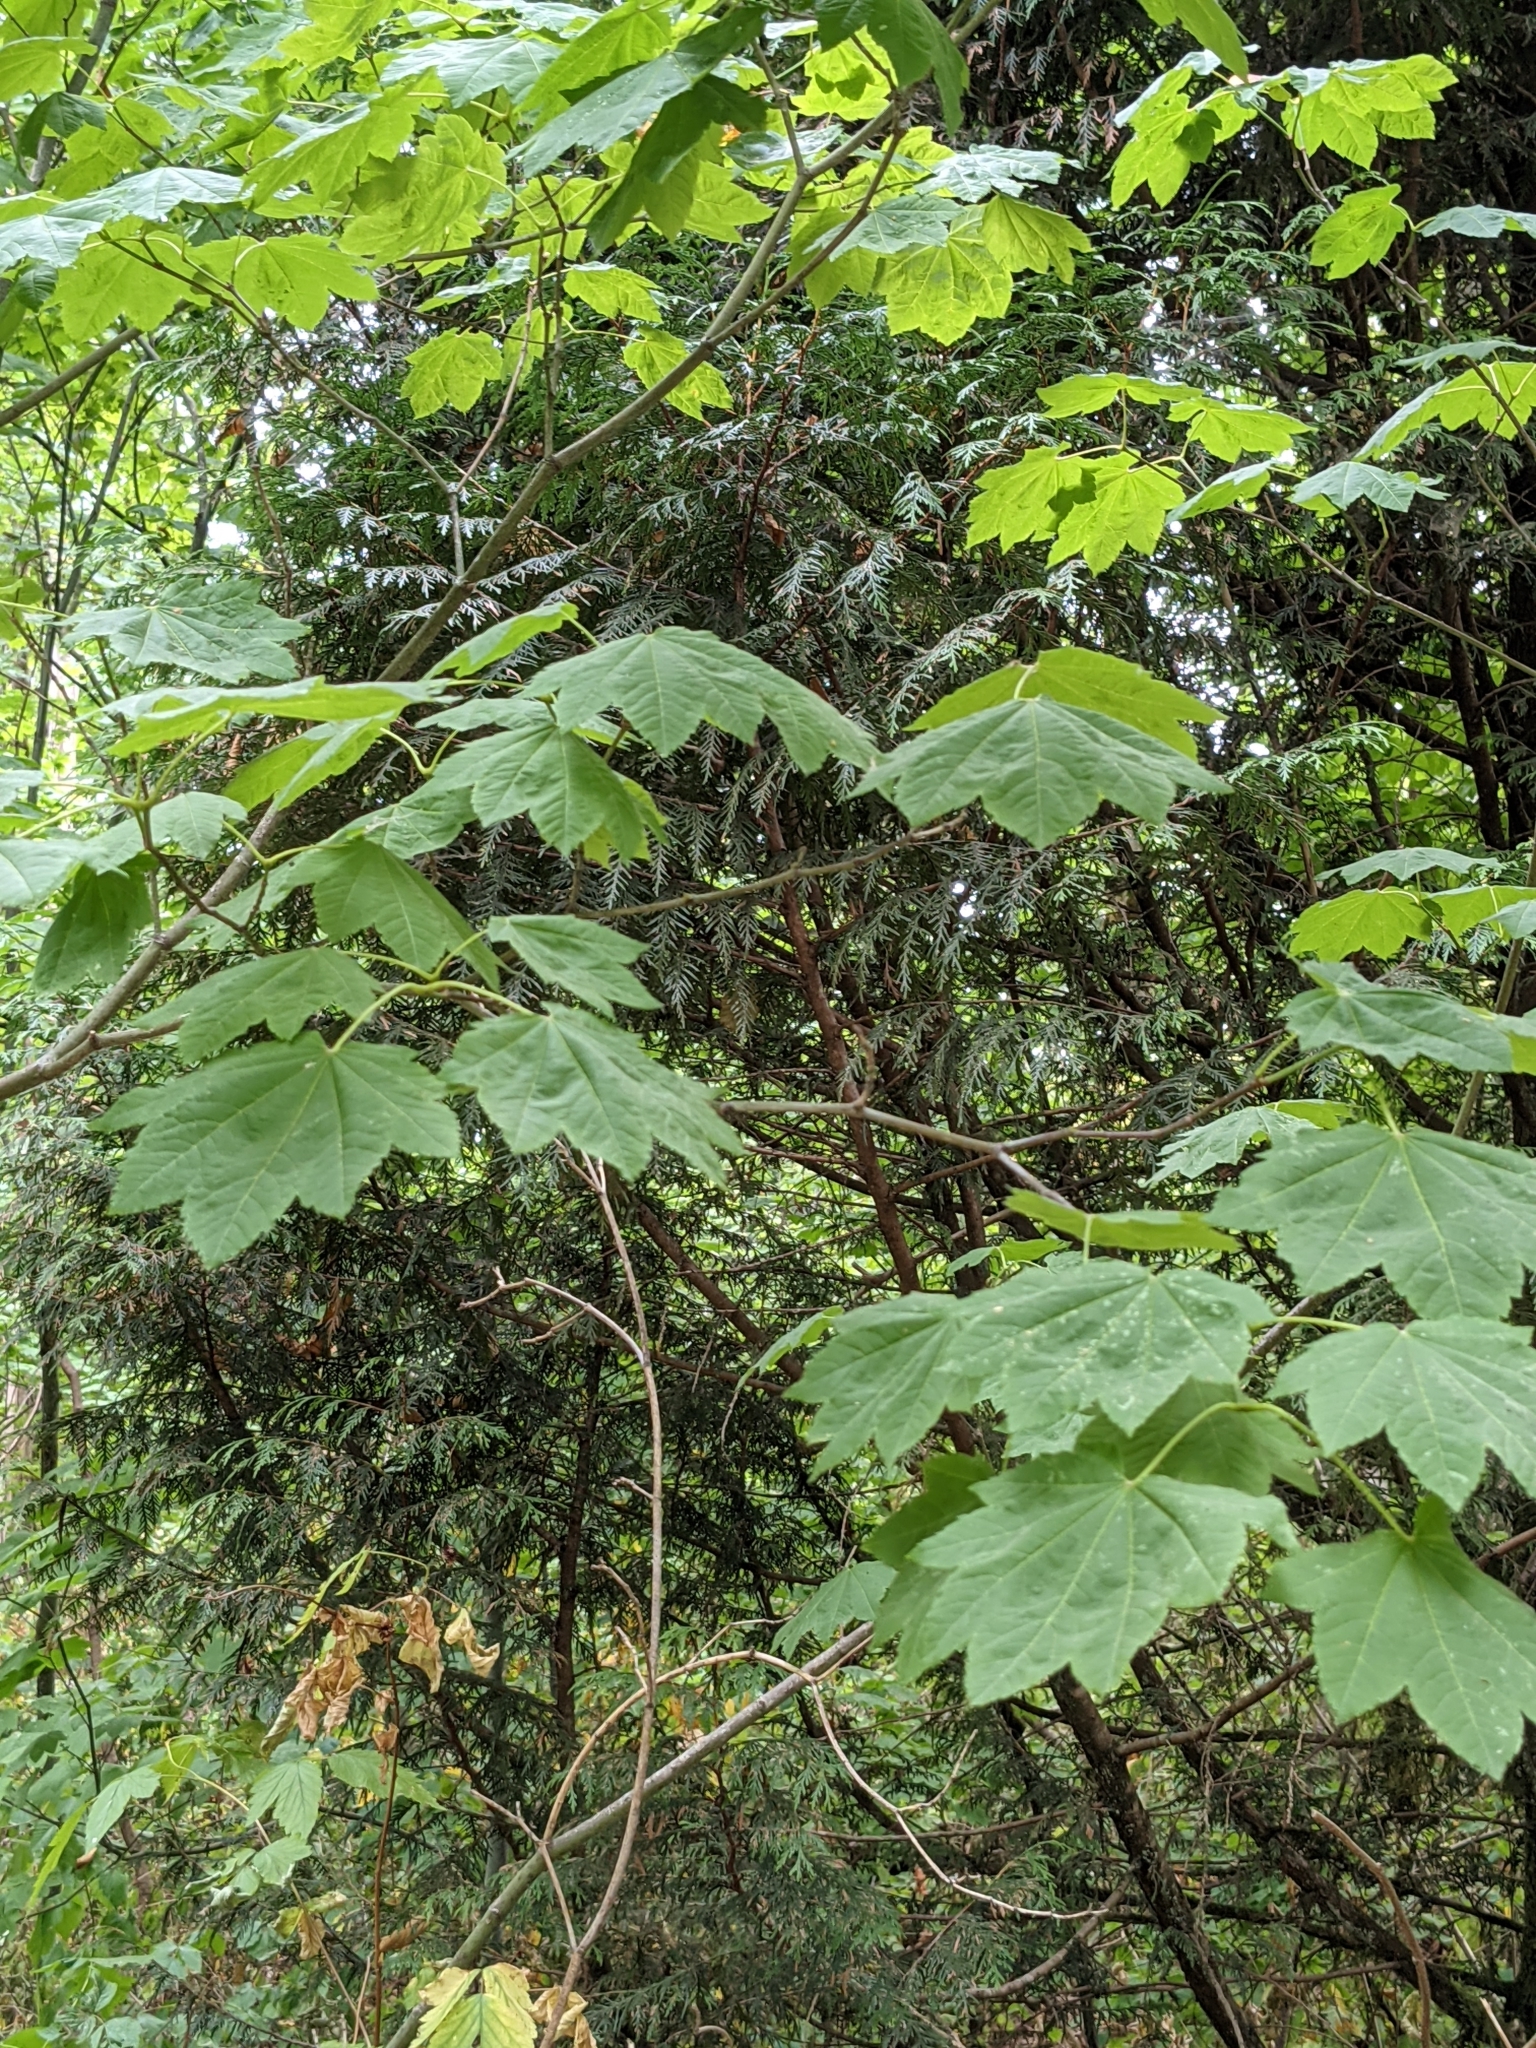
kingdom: Plantae
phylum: Tracheophyta
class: Magnoliopsida
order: Sapindales
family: Sapindaceae
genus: Acer
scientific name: Acer circinatum
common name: Vine maple
